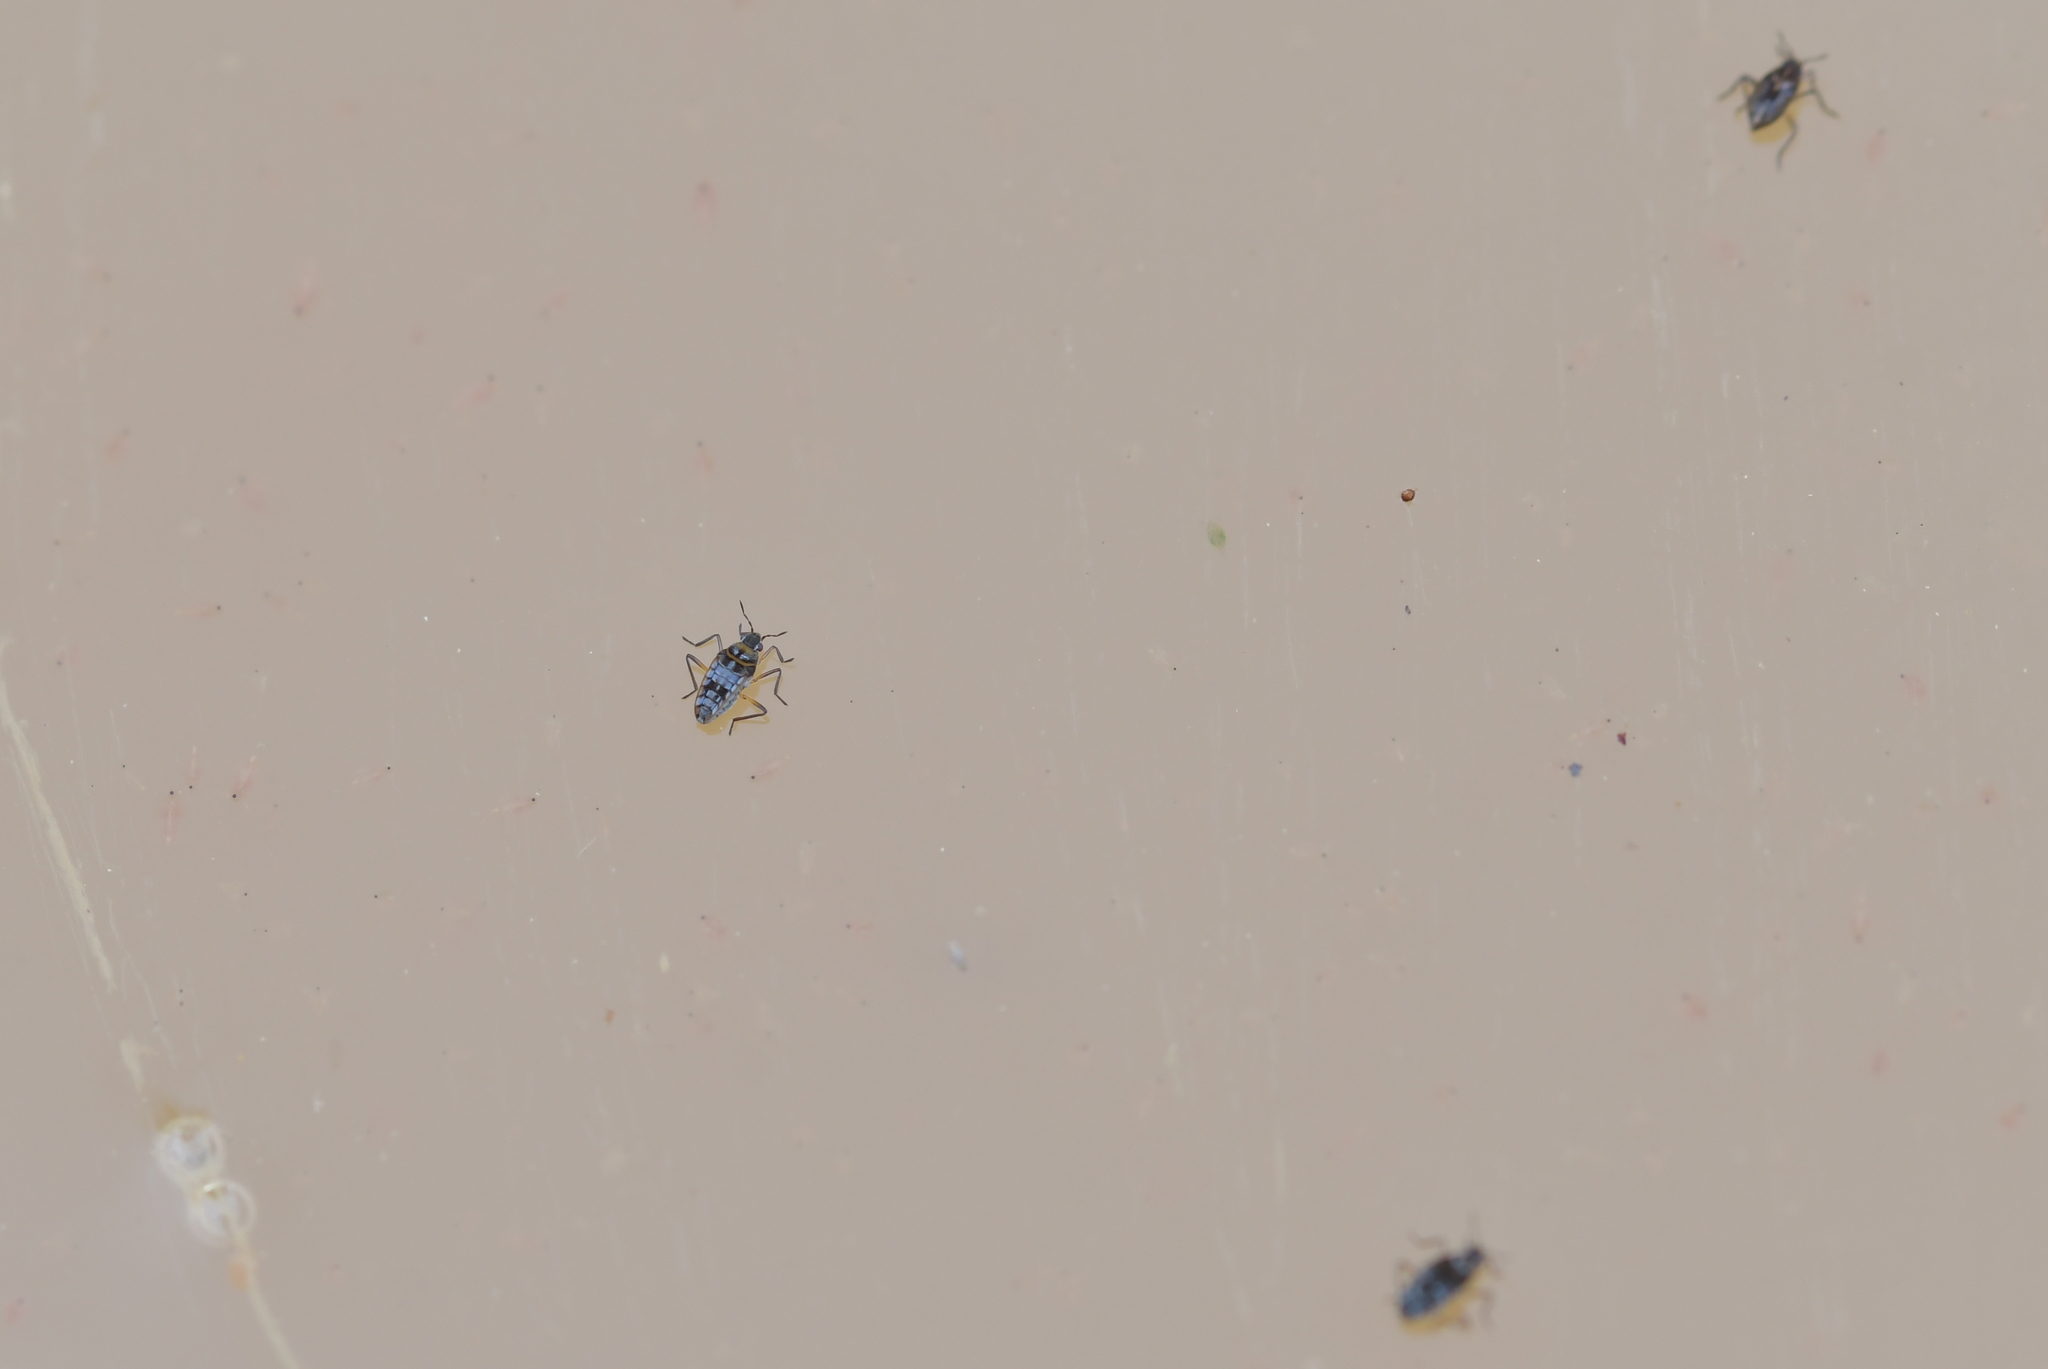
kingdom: Animalia
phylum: Arthropoda
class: Insecta
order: Hemiptera
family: Veliidae
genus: Microvelia
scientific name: Microvelia
